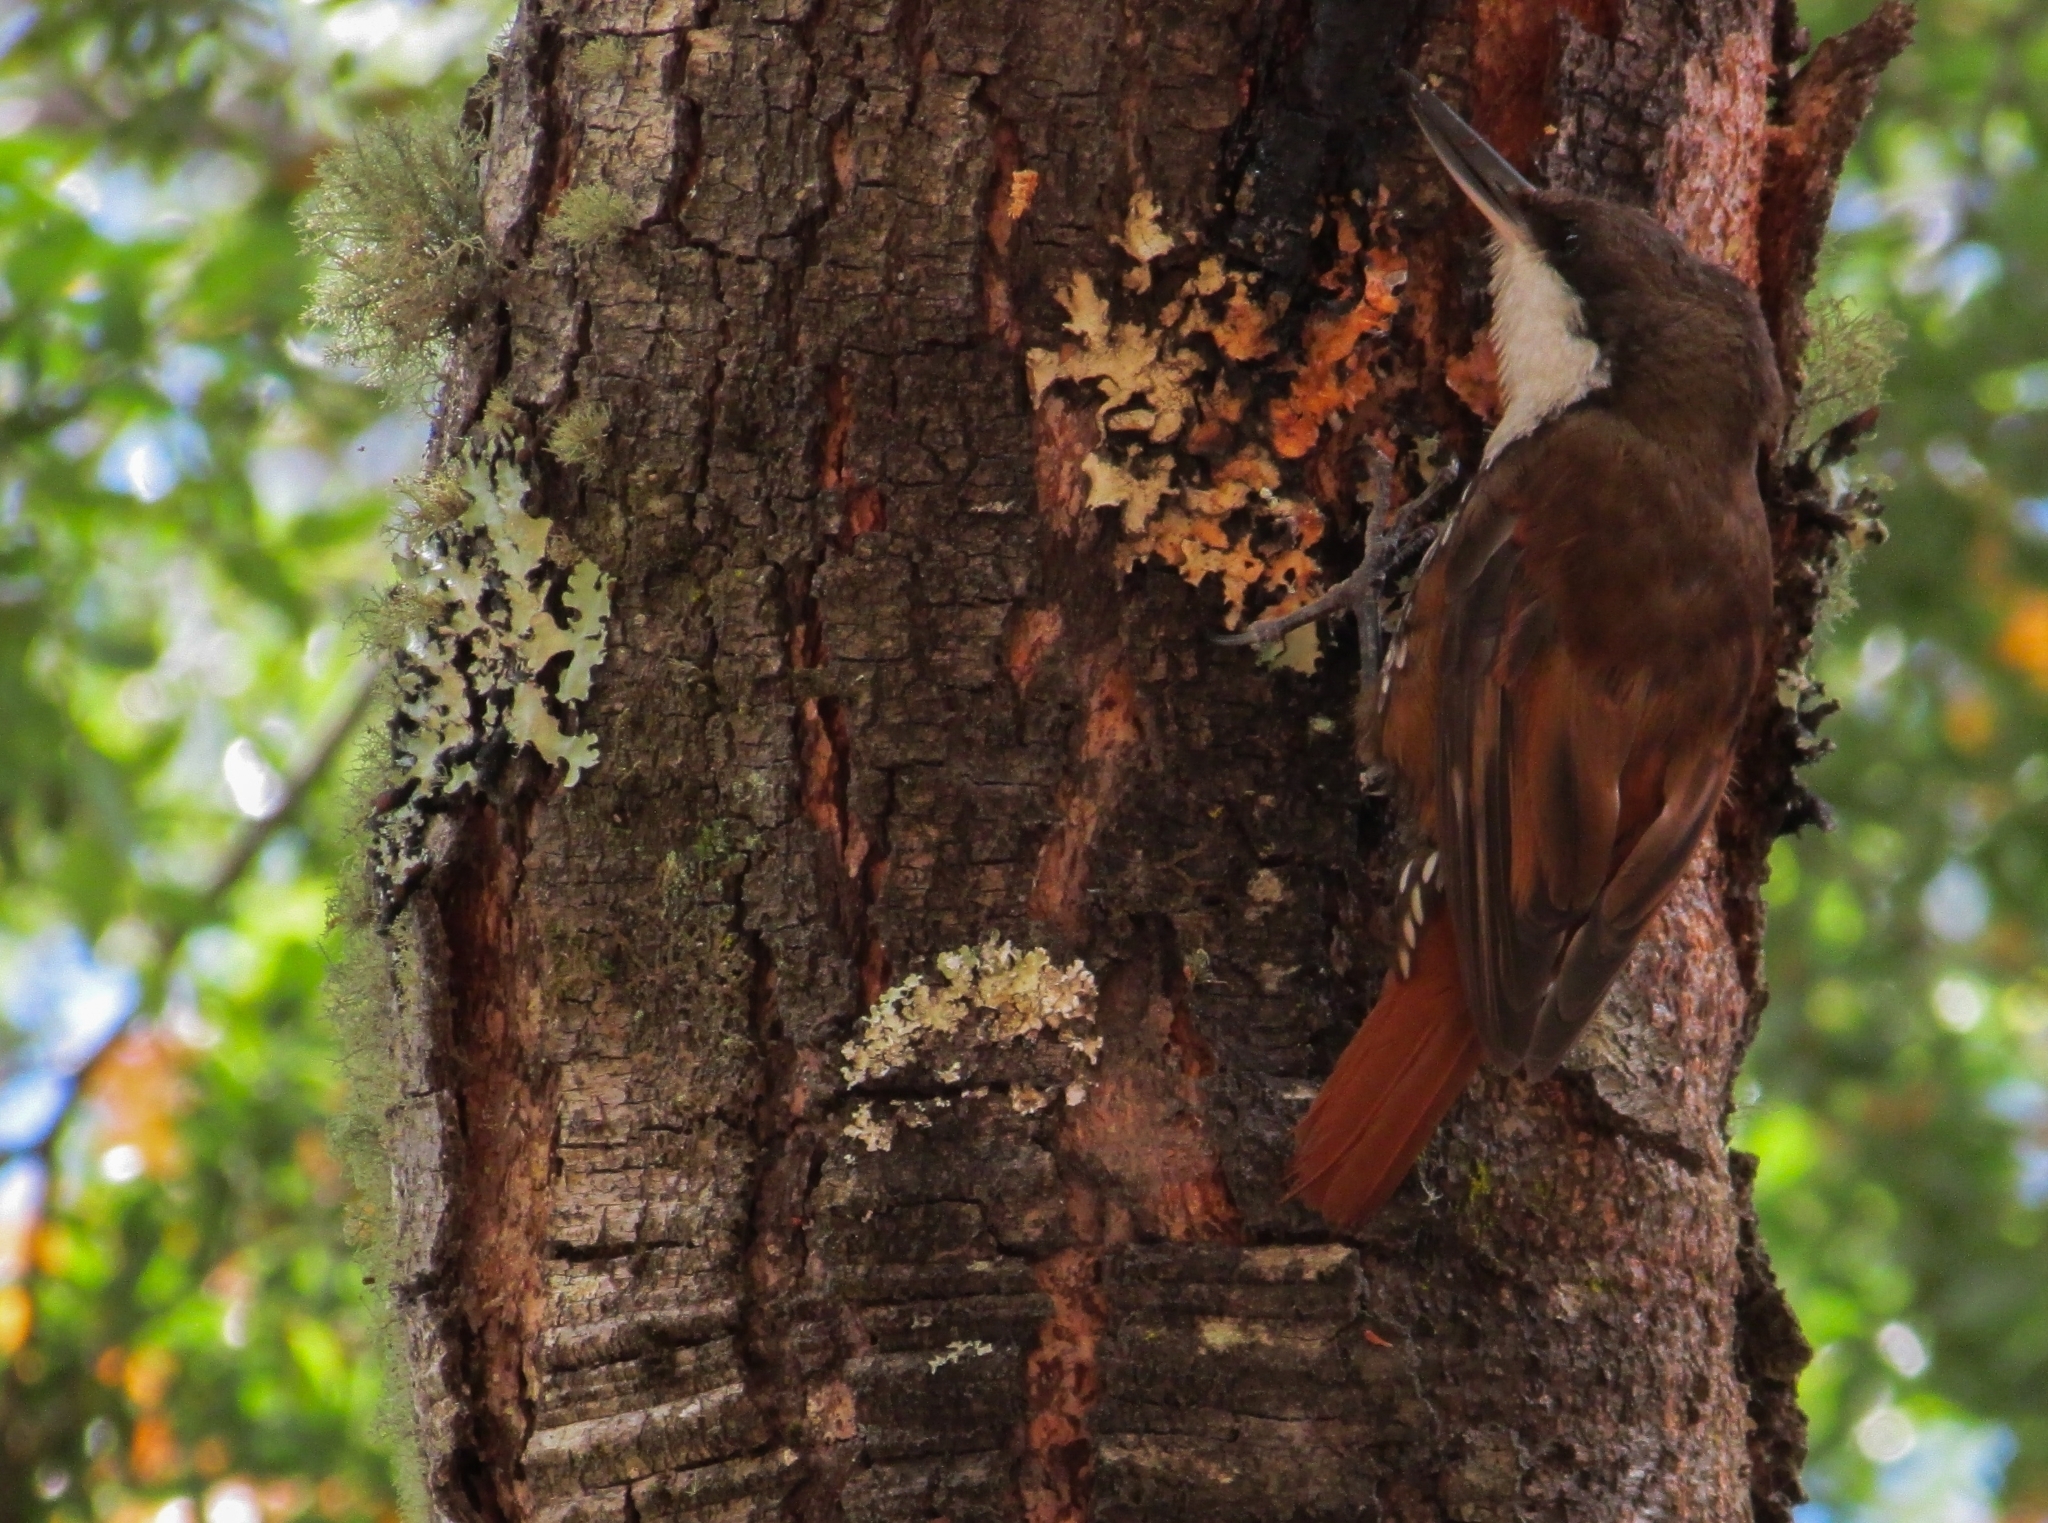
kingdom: Animalia
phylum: Chordata
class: Aves
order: Passeriformes
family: Furnariidae
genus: Pygarrhichas
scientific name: Pygarrhichas albogularis
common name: White-throated treerunner
